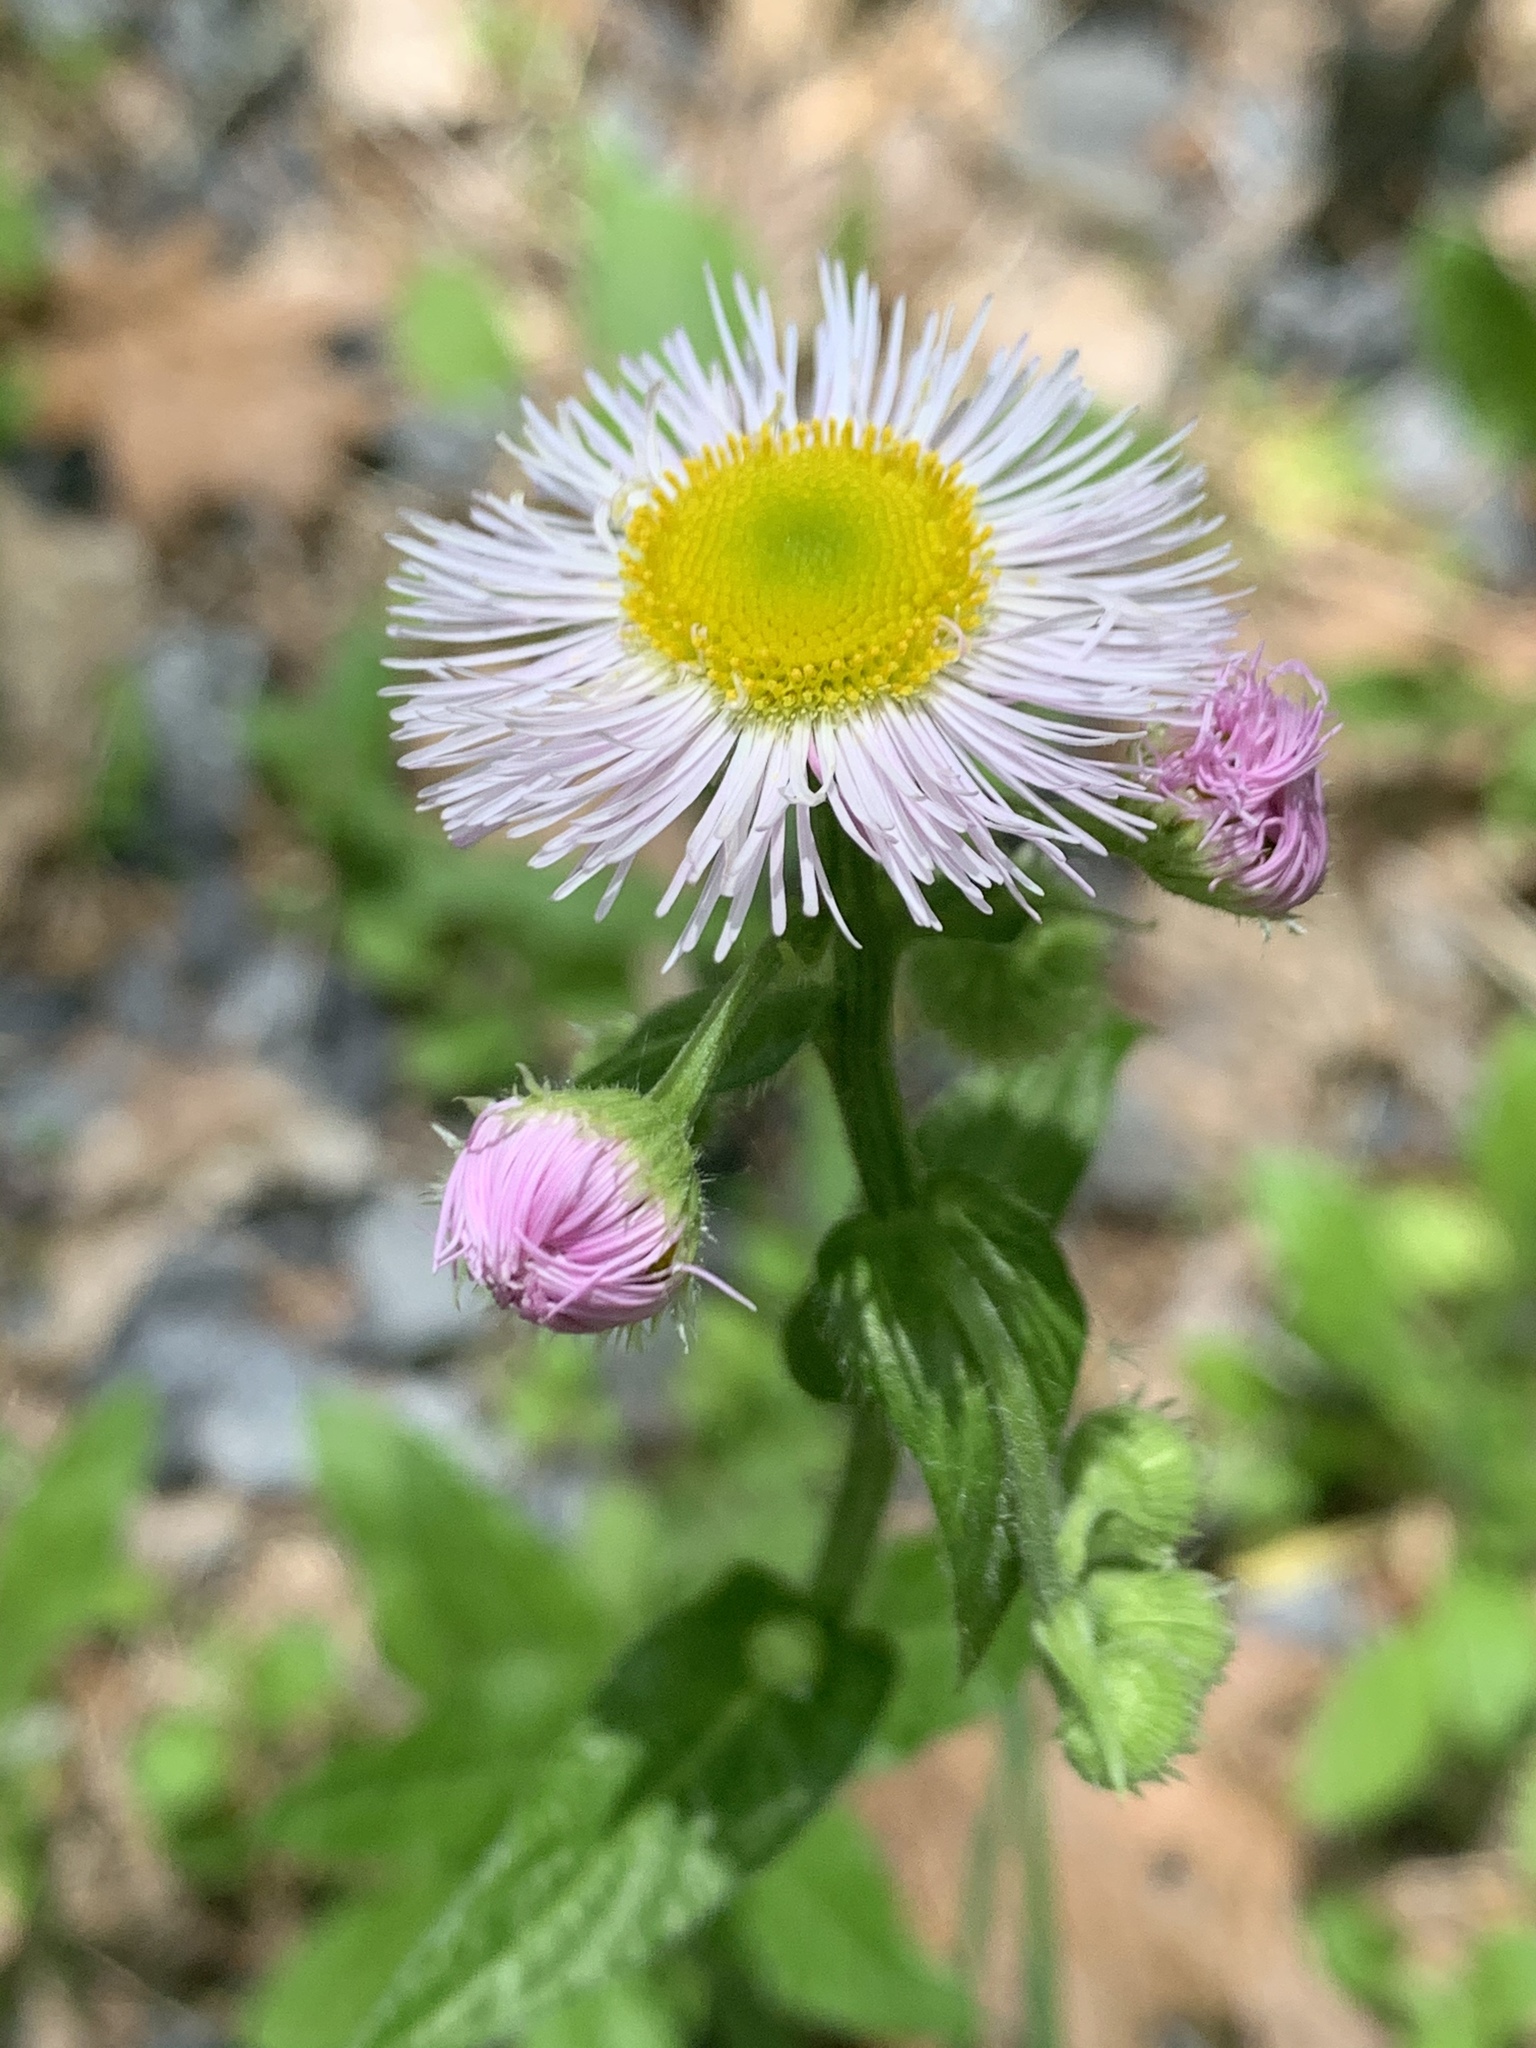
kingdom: Plantae
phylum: Tracheophyta
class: Magnoliopsida
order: Asterales
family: Asteraceae
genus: Erigeron
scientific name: Erigeron philadelphicus
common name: Robin's-plantain
